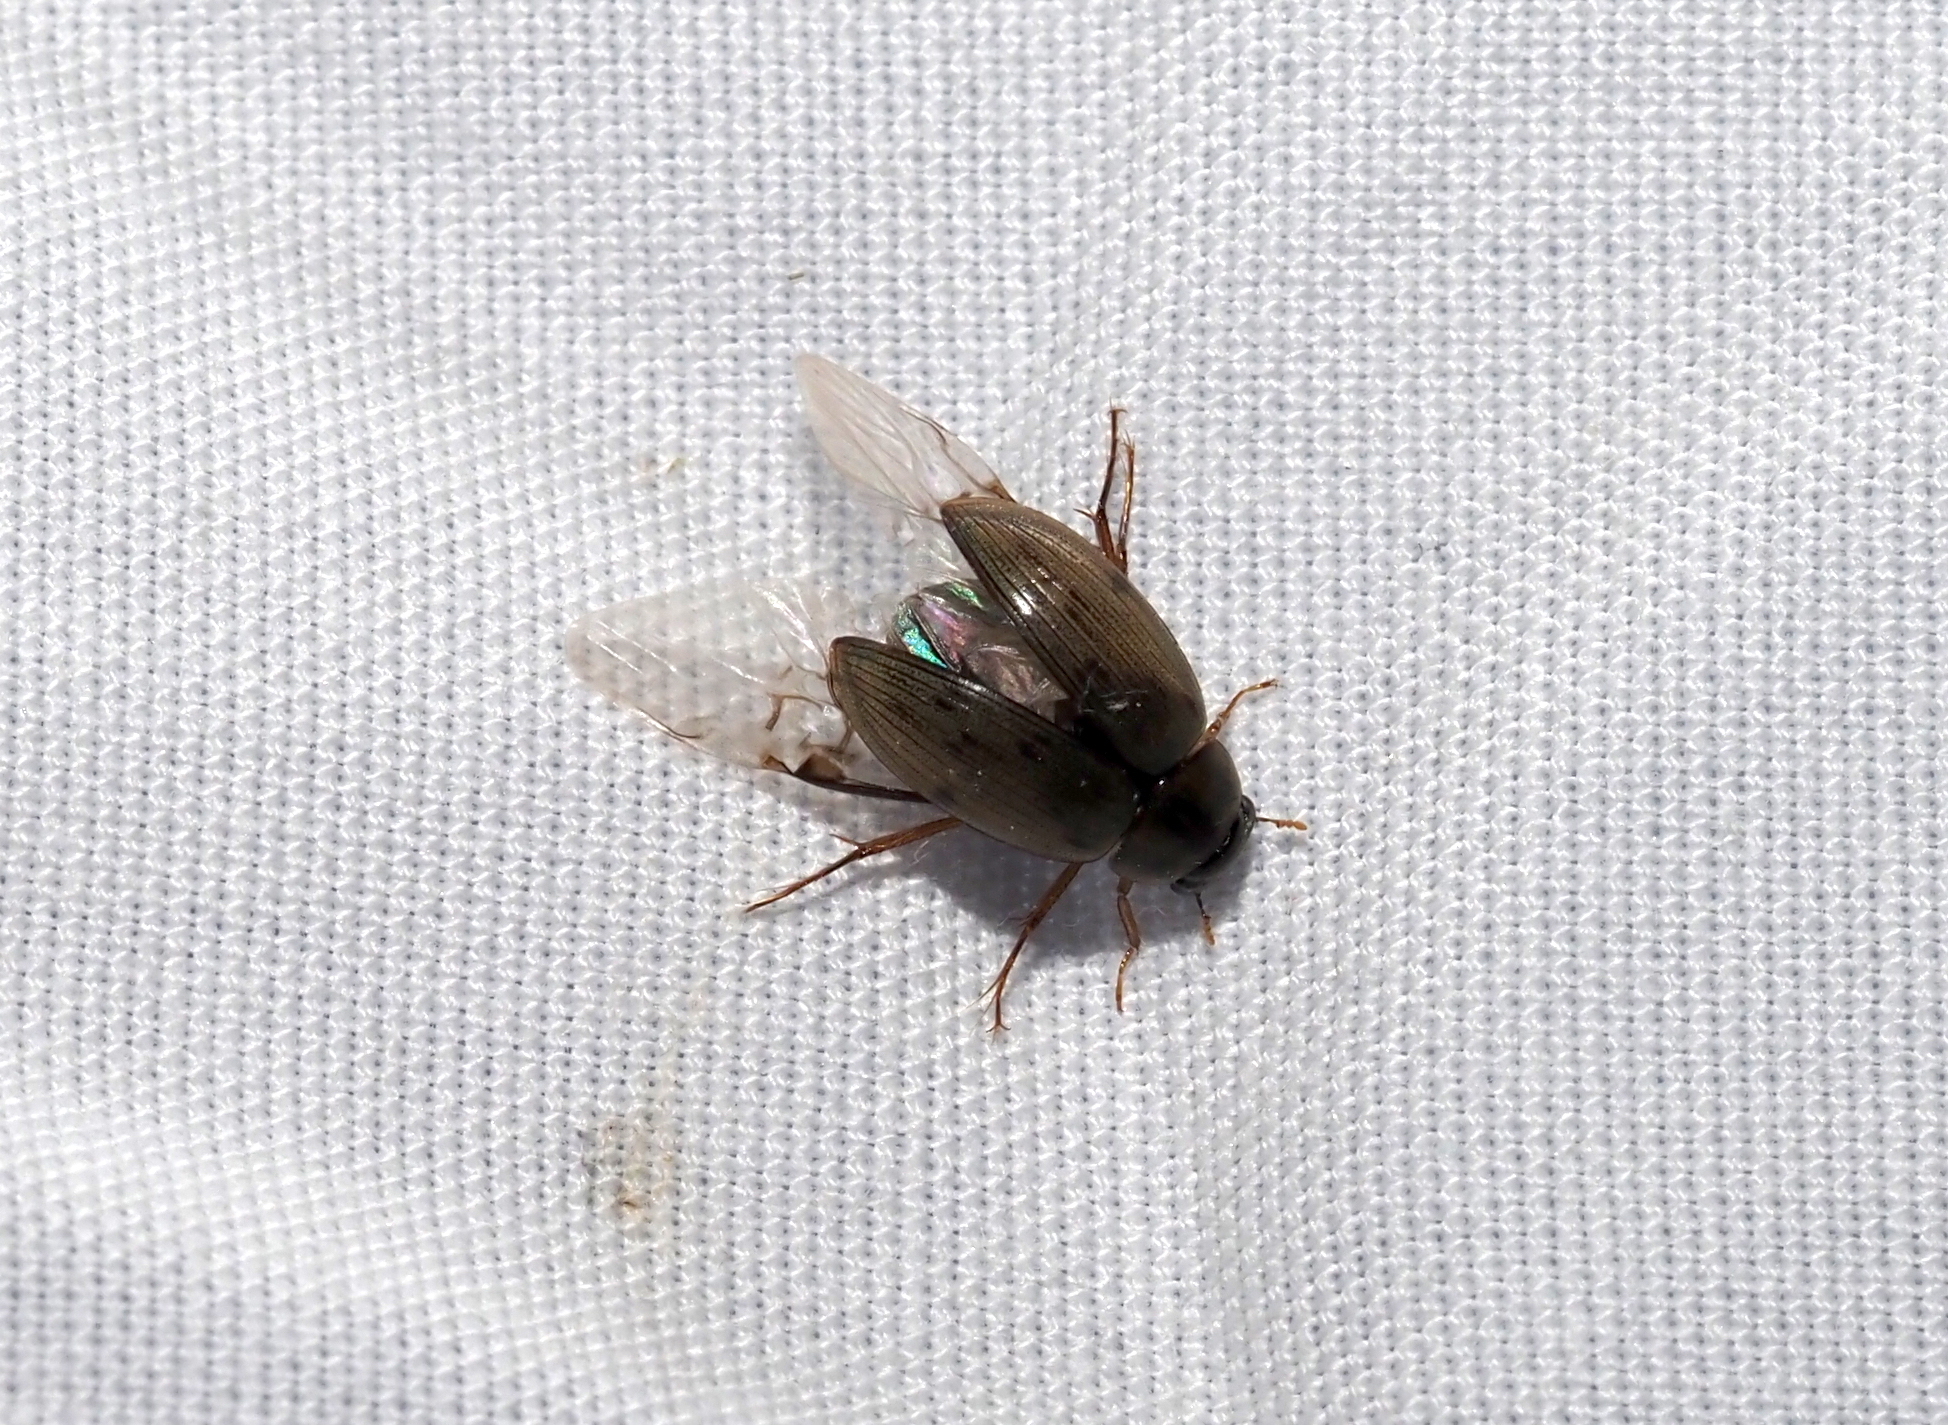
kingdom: Animalia
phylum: Arthropoda
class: Insecta
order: Coleoptera
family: Hydrophilidae
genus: Berosus
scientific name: Berosus
